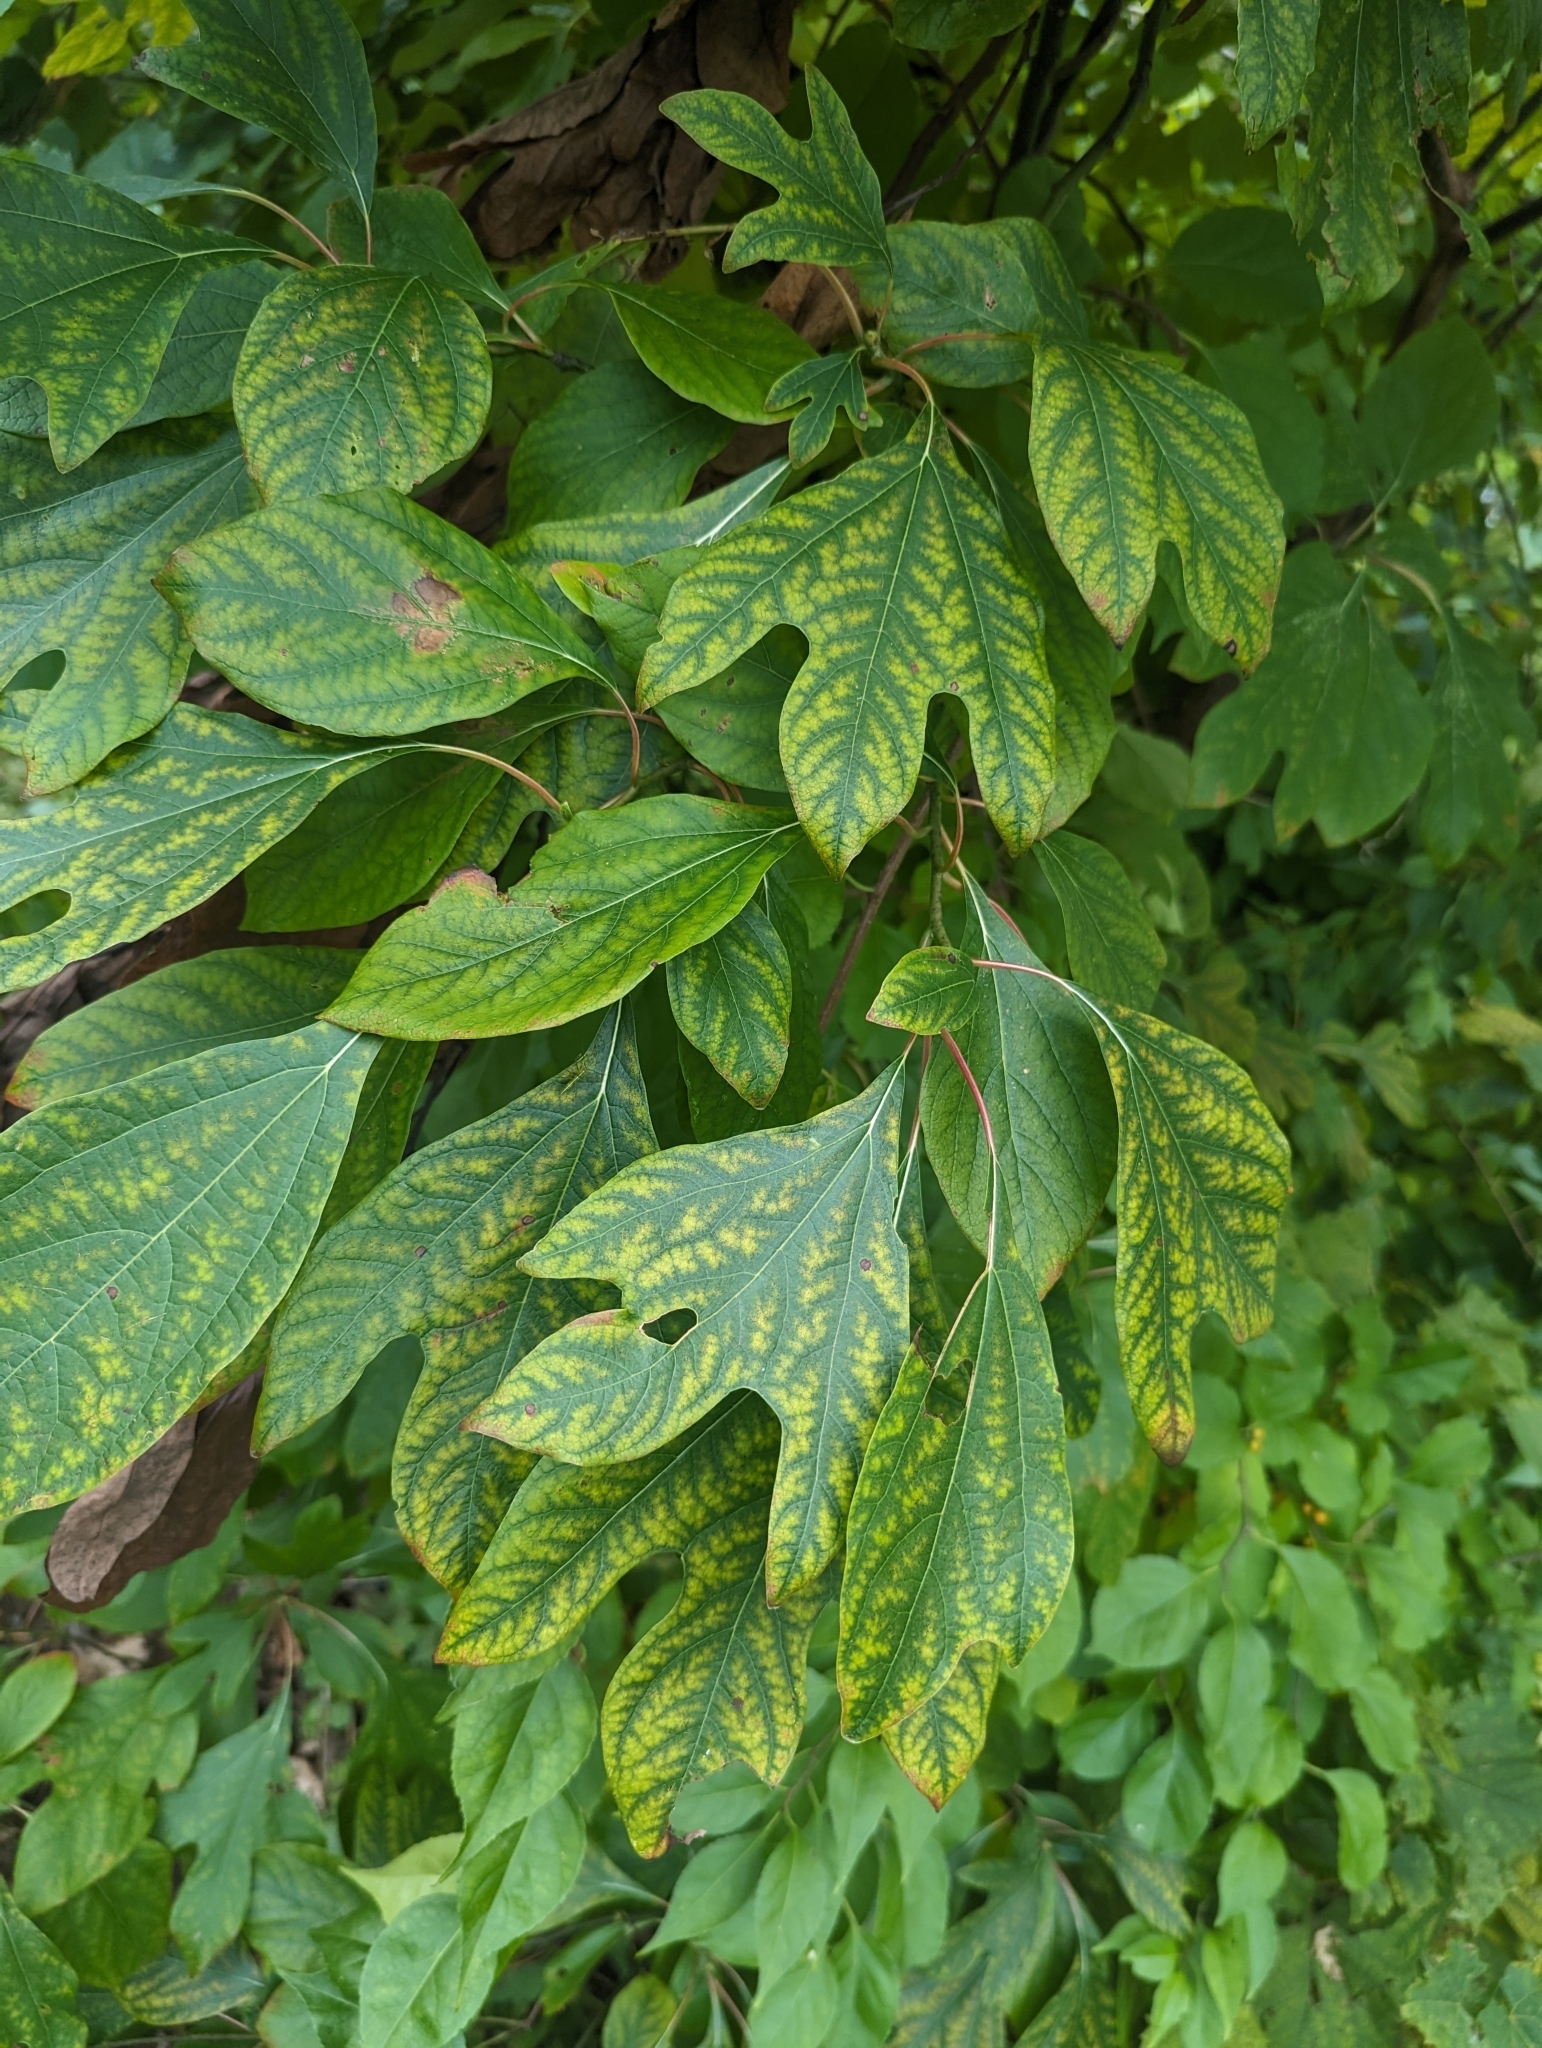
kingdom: Plantae
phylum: Tracheophyta
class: Magnoliopsida
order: Laurales
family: Lauraceae
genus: Sassafras
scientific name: Sassafras albidum
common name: Sassafras
